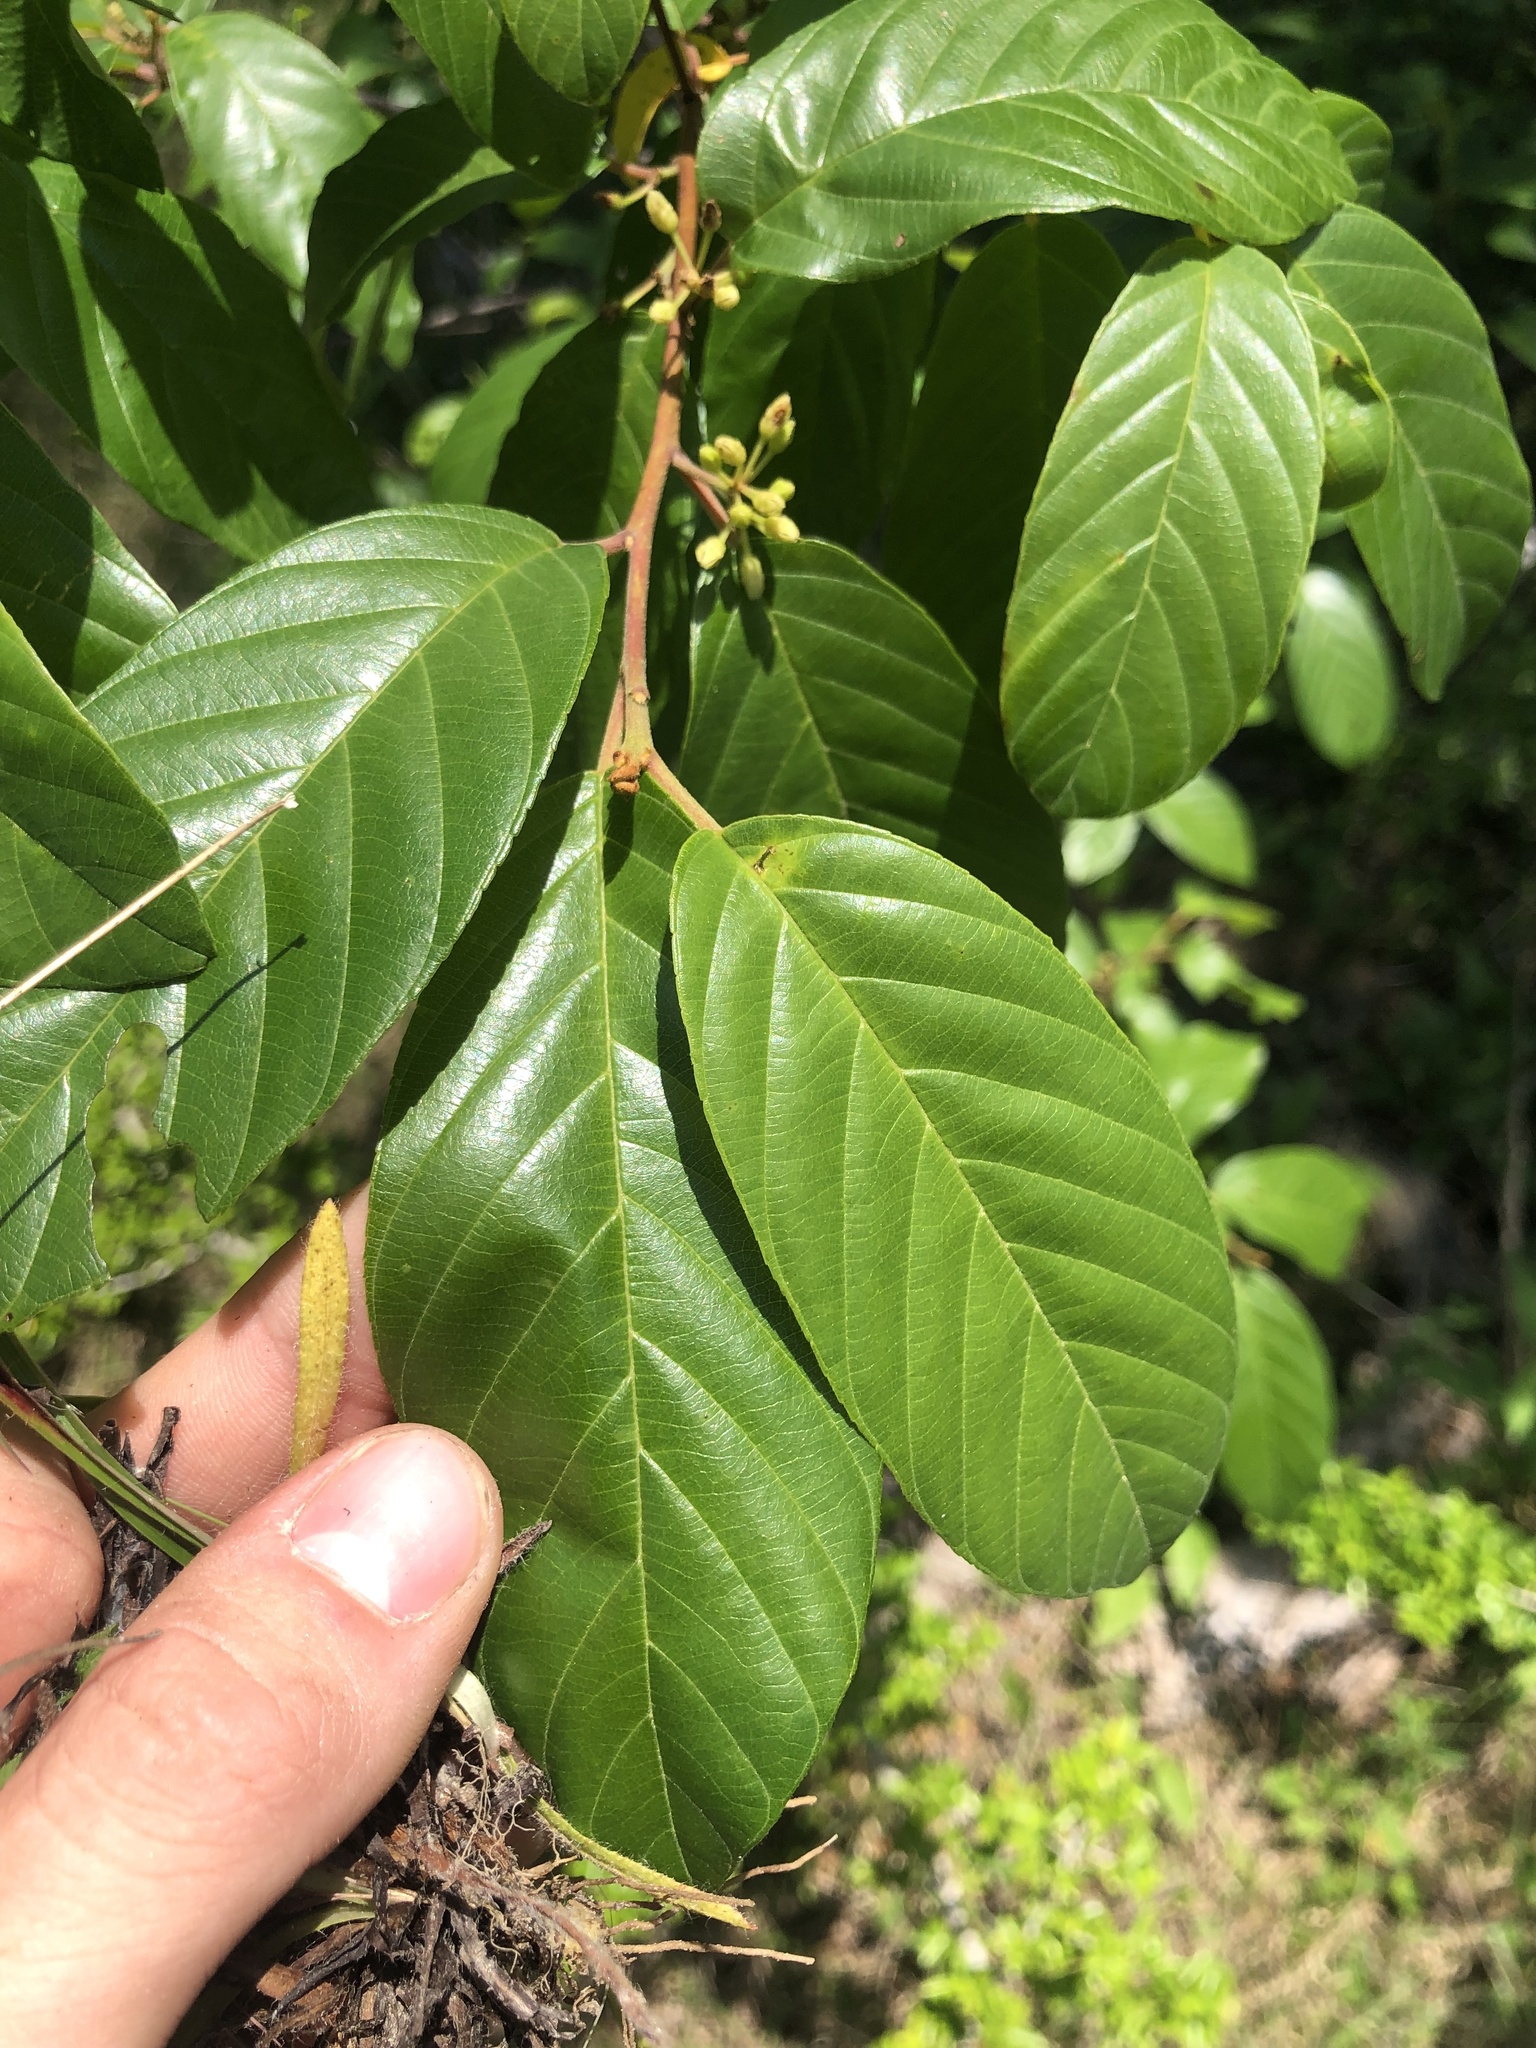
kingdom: Plantae
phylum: Tracheophyta
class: Magnoliopsida
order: Rosales
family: Rhamnaceae
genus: Frangula
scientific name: Frangula caroliniana
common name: Carolina buckthorn
